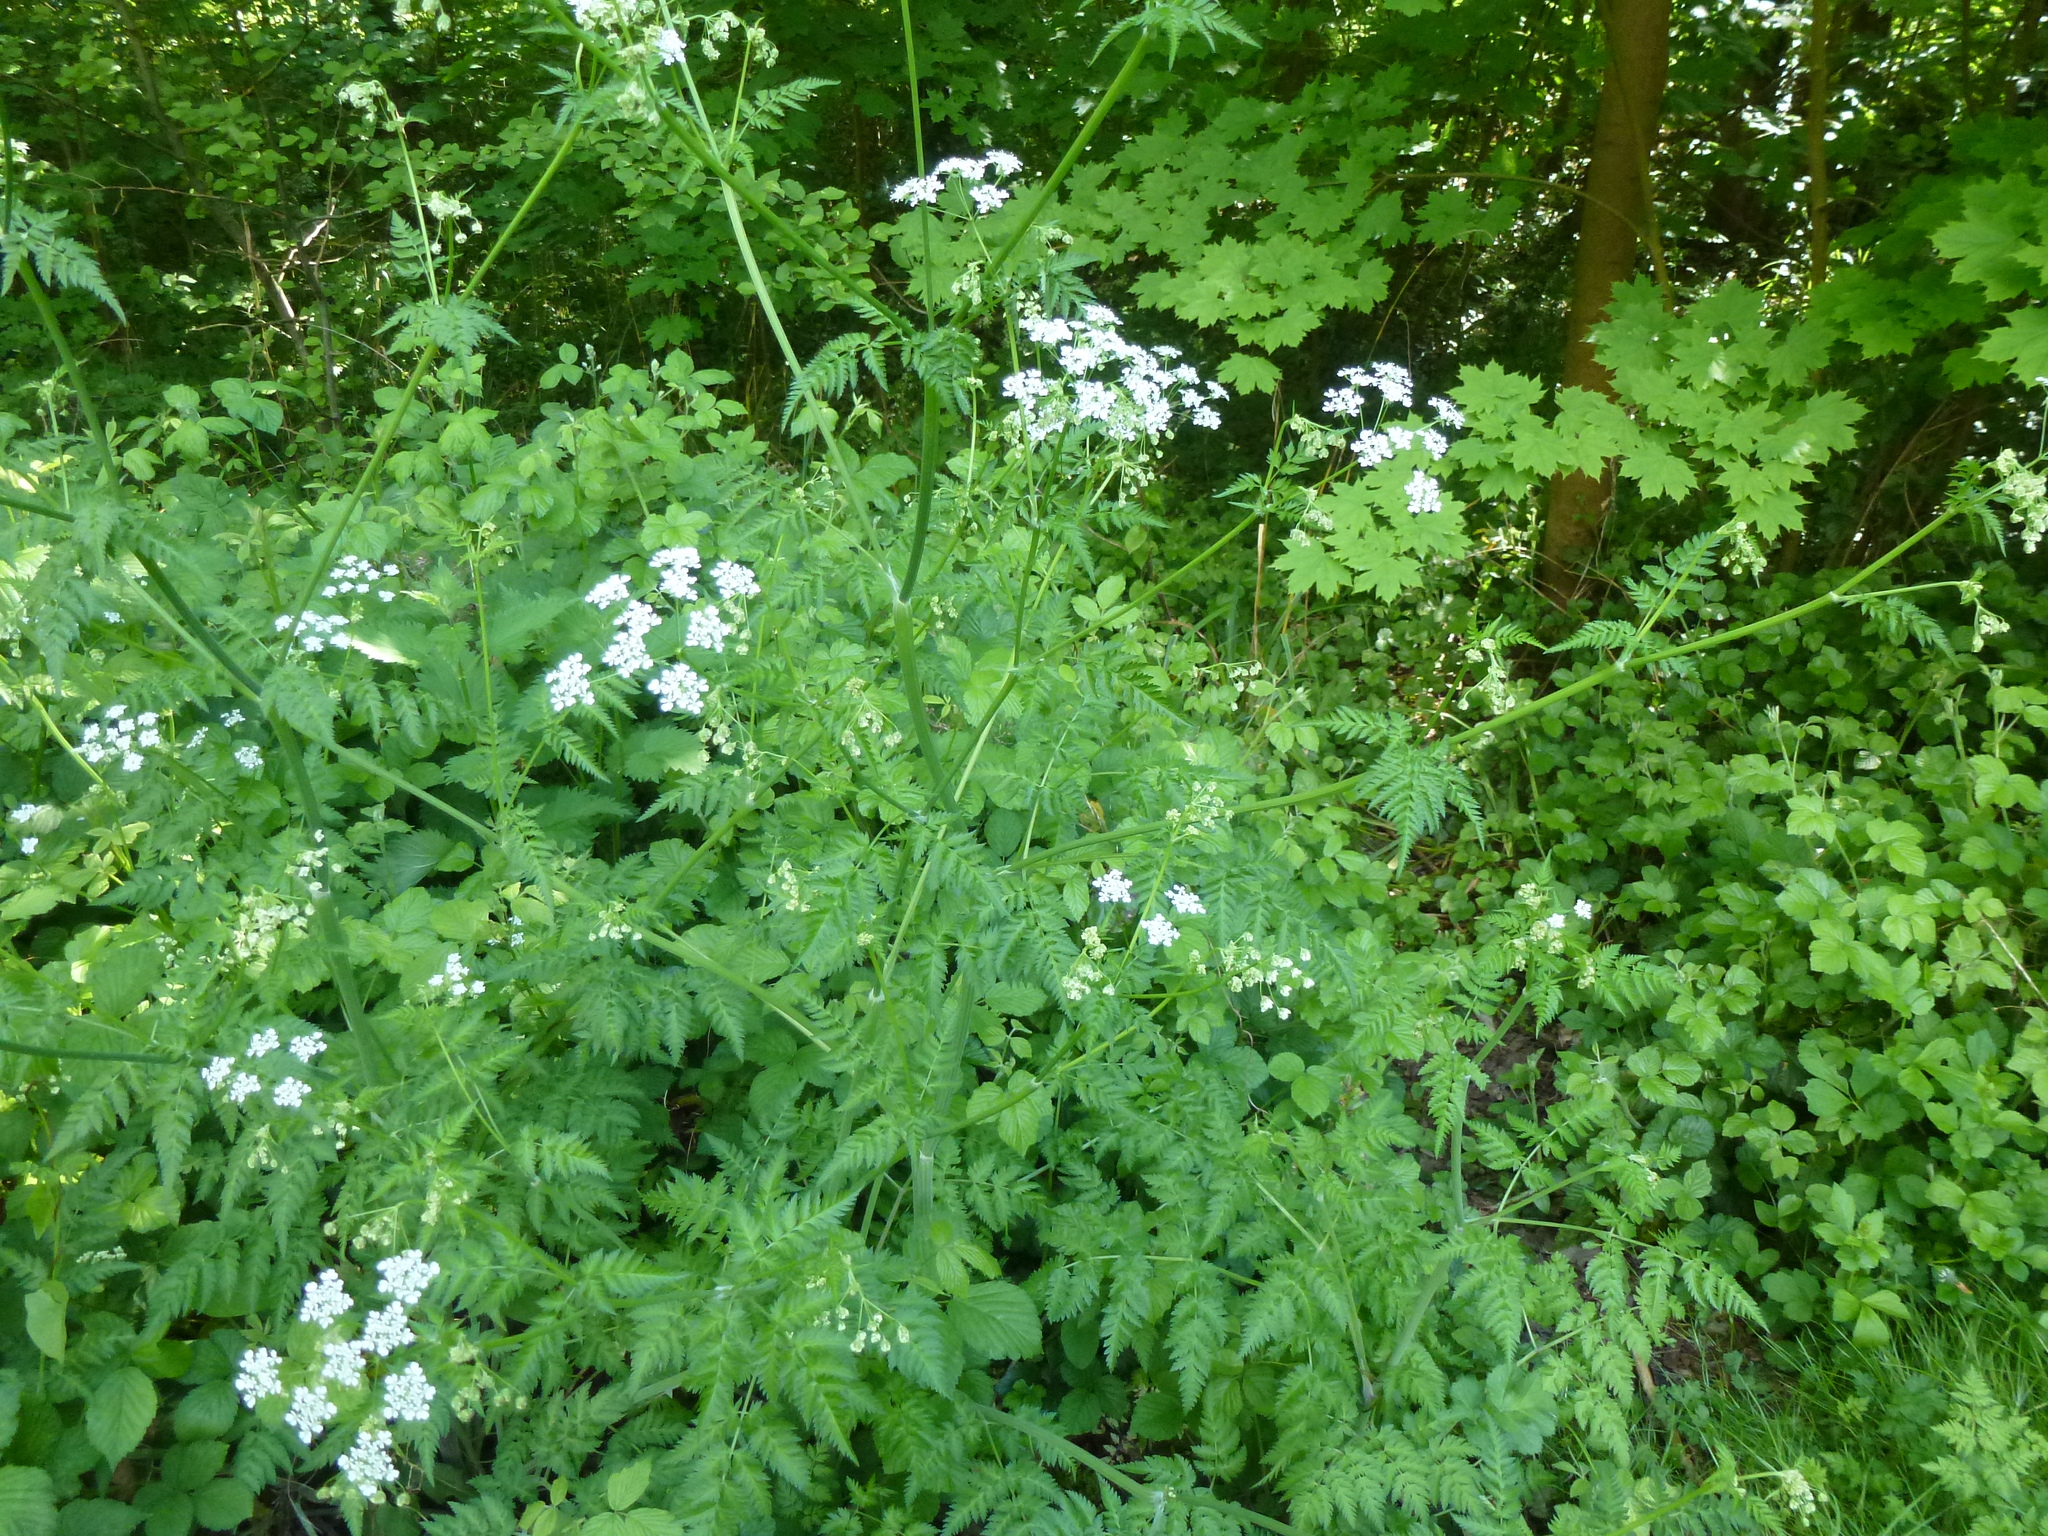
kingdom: Plantae
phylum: Tracheophyta
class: Magnoliopsida
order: Apiales
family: Apiaceae
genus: Anthriscus
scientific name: Anthriscus sylvestris
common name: Cow parsley
